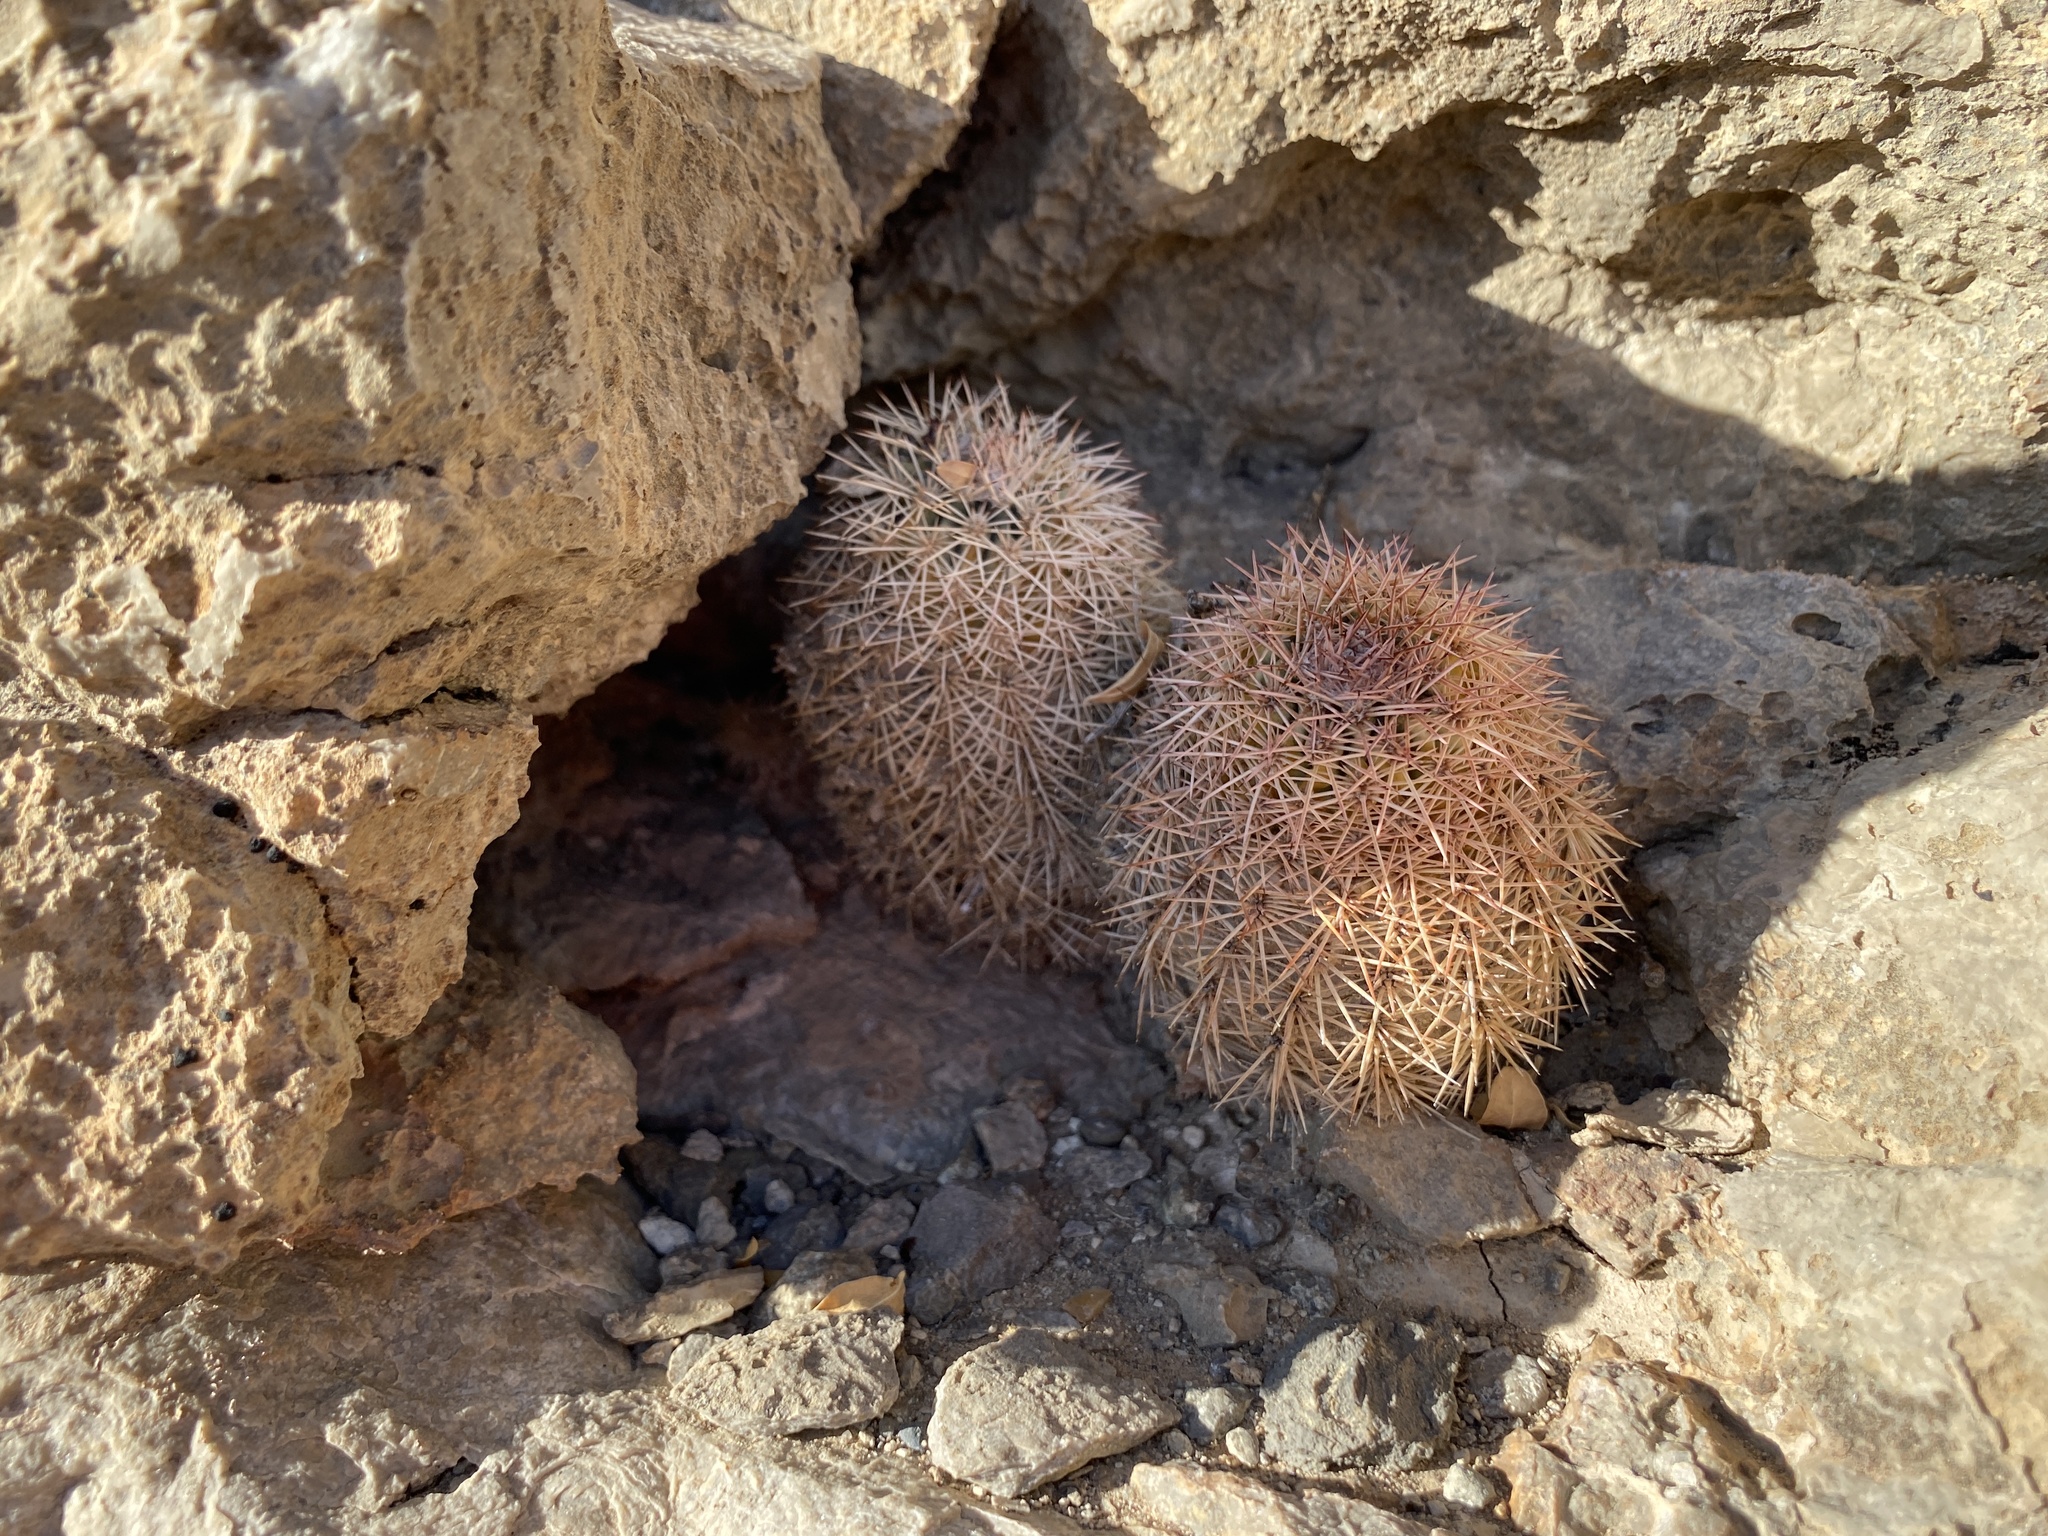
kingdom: Plantae
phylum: Tracheophyta
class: Magnoliopsida
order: Caryophyllales
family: Cactaceae
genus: Echinocereus
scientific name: Echinocereus dasyacanthus
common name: Spiny hedgehog cactus
